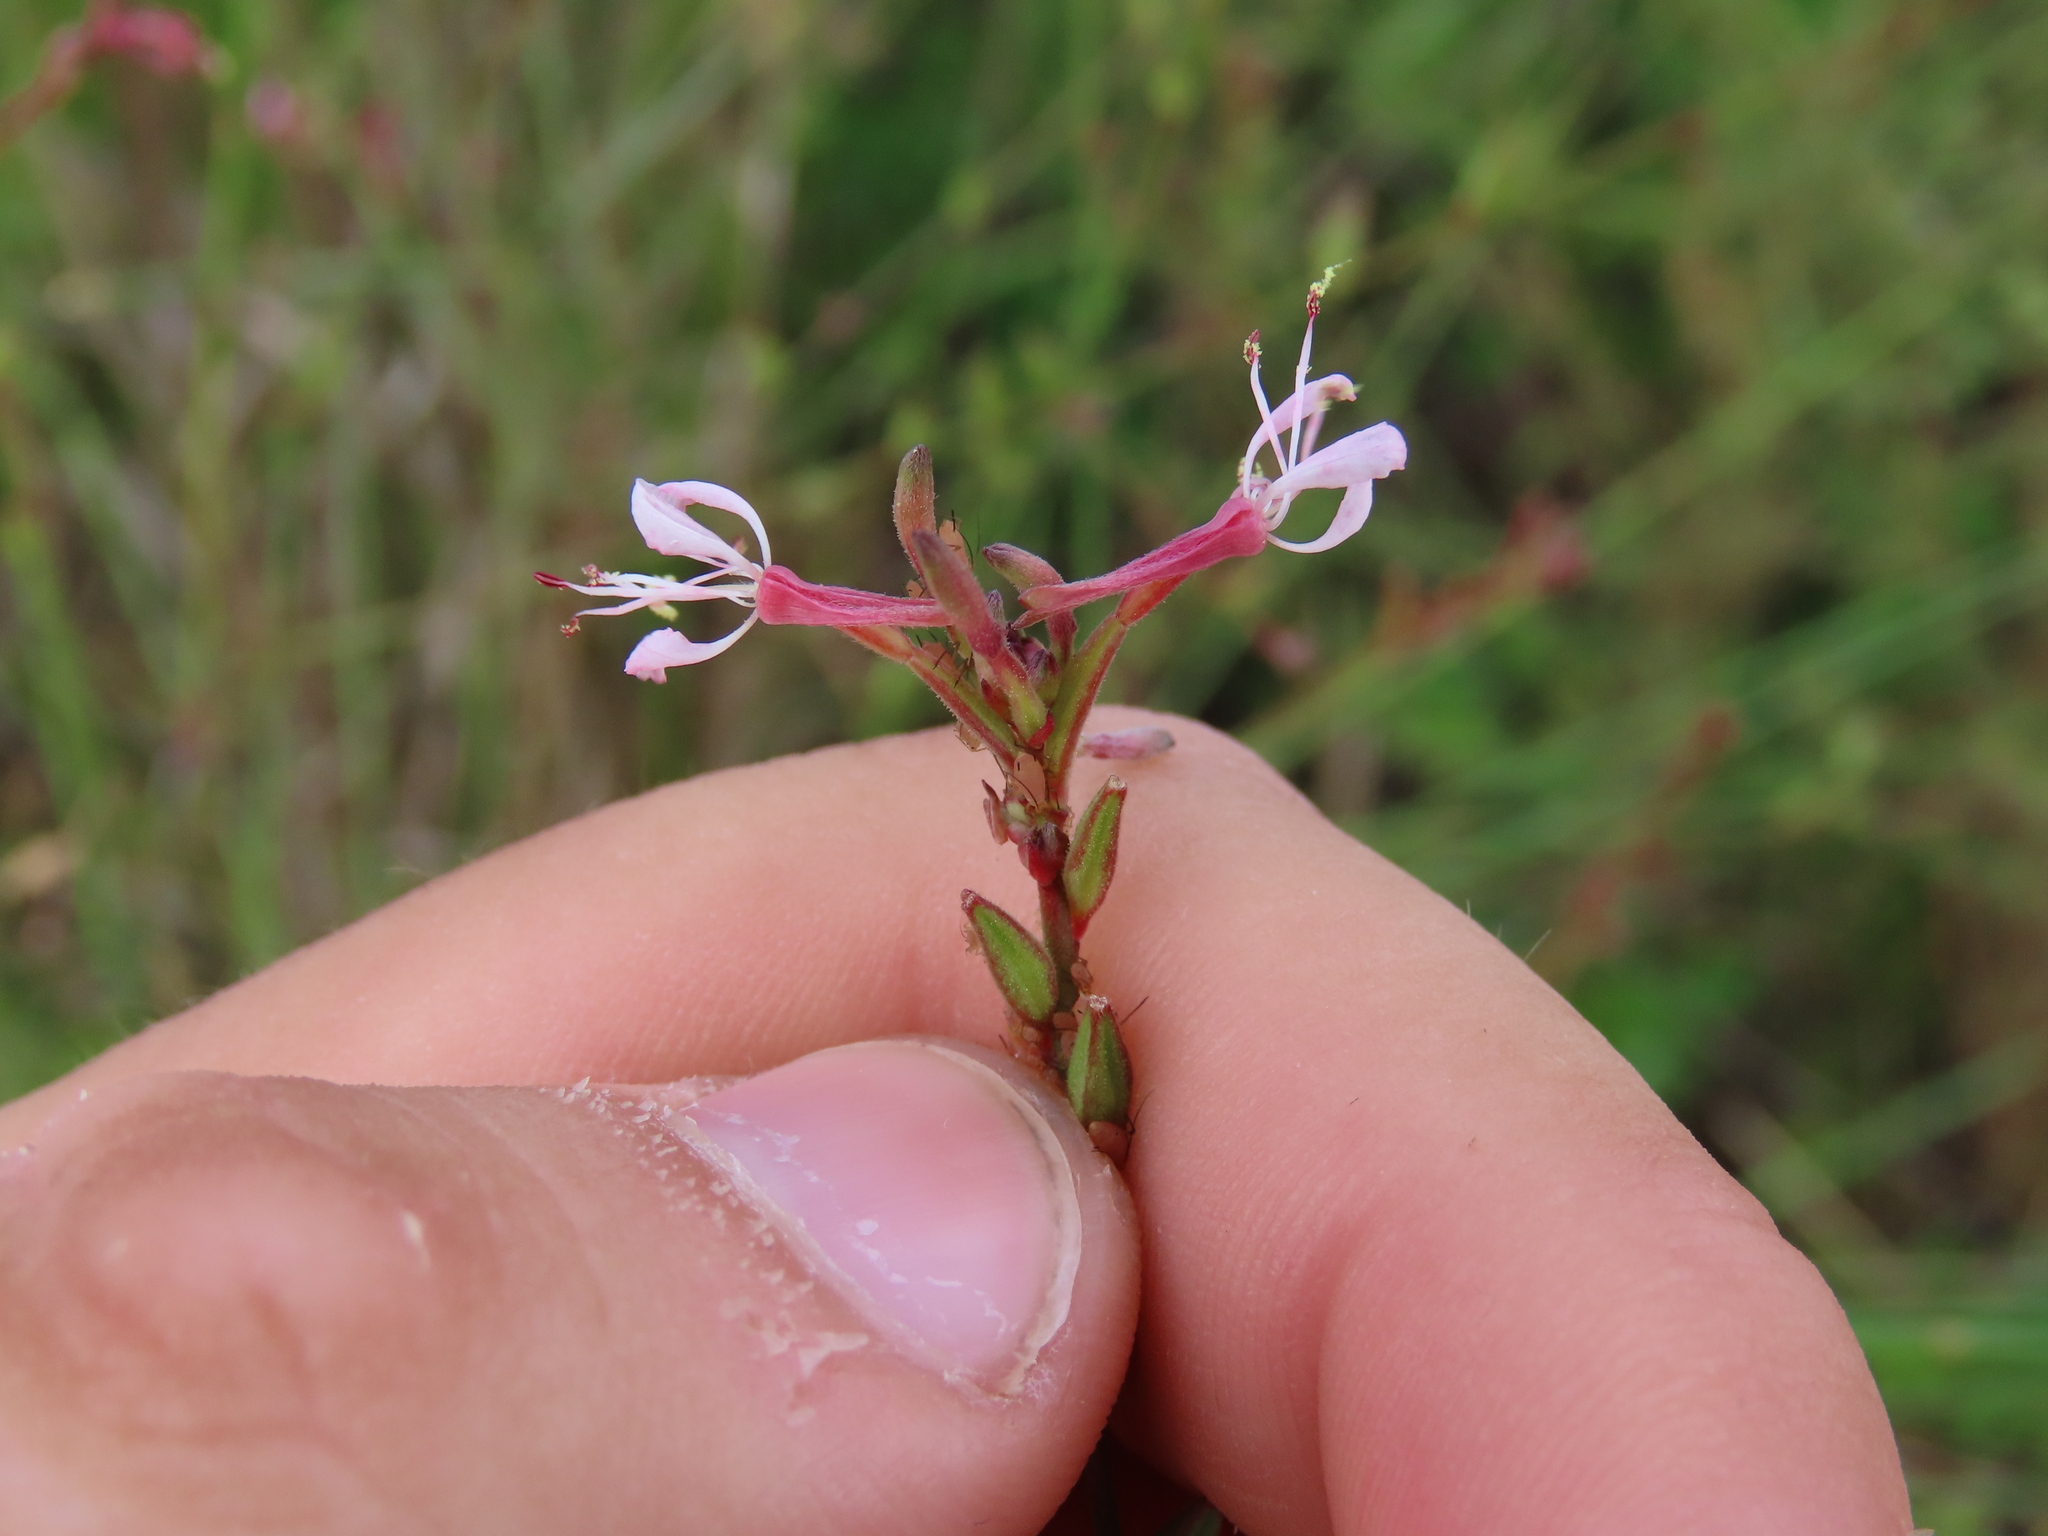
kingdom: Plantae
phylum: Tracheophyta
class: Magnoliopsida
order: Myrtales
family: Onagraceae
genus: Oenothera
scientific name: Oenothera simulans
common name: Southern beeblossom
